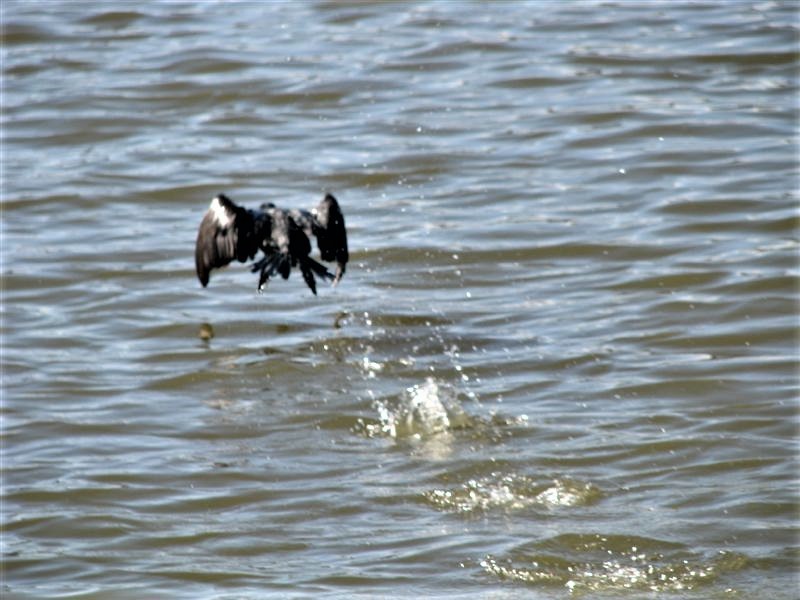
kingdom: Animalia
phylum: Chordata
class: Aves
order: Suliformes
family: Phalacrocoracidae
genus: Phalacrocorax
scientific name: Phalacrocorax brasilianus
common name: Neotropic cormorant
